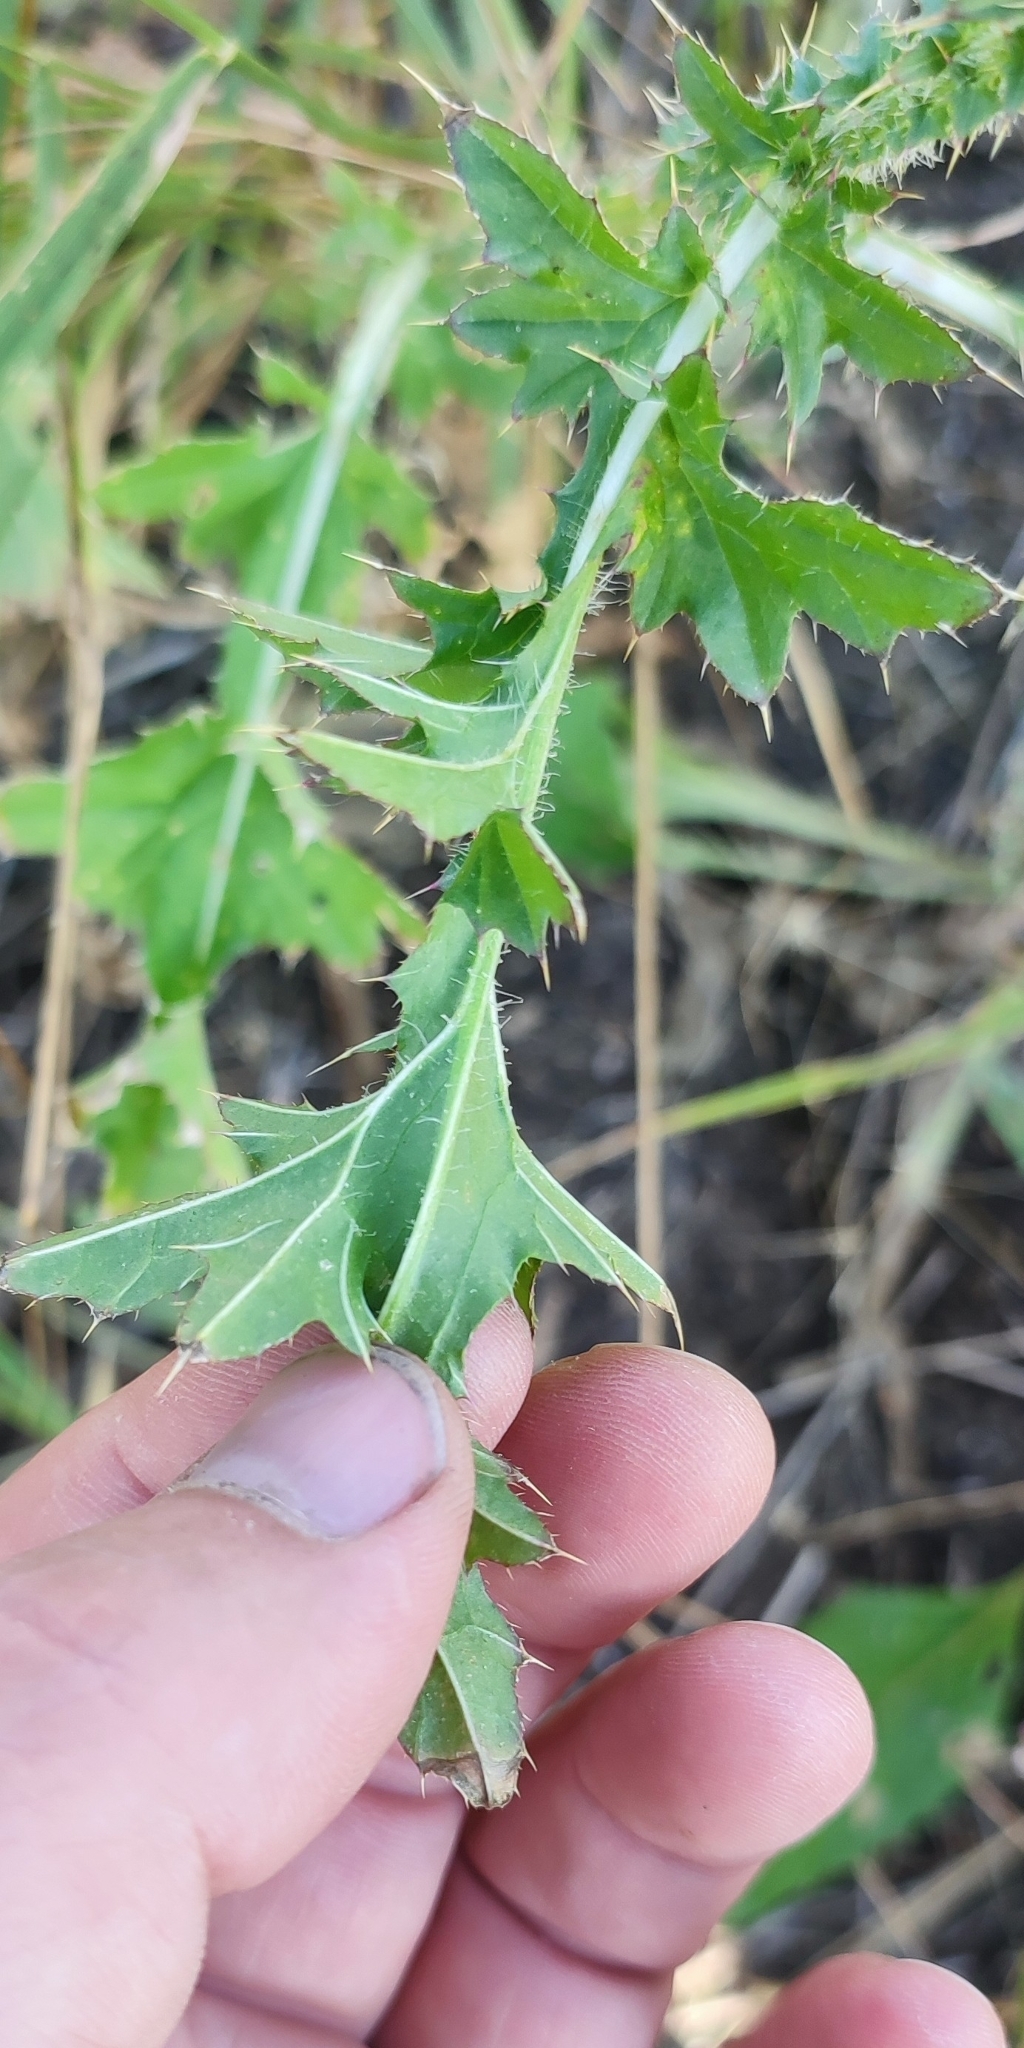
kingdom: Plantae
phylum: Tracheophyta
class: Magnoliopsida
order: Asterales
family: Asteraceae
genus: Carduus
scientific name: Carduus acanthoides
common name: Plumeless thistle
